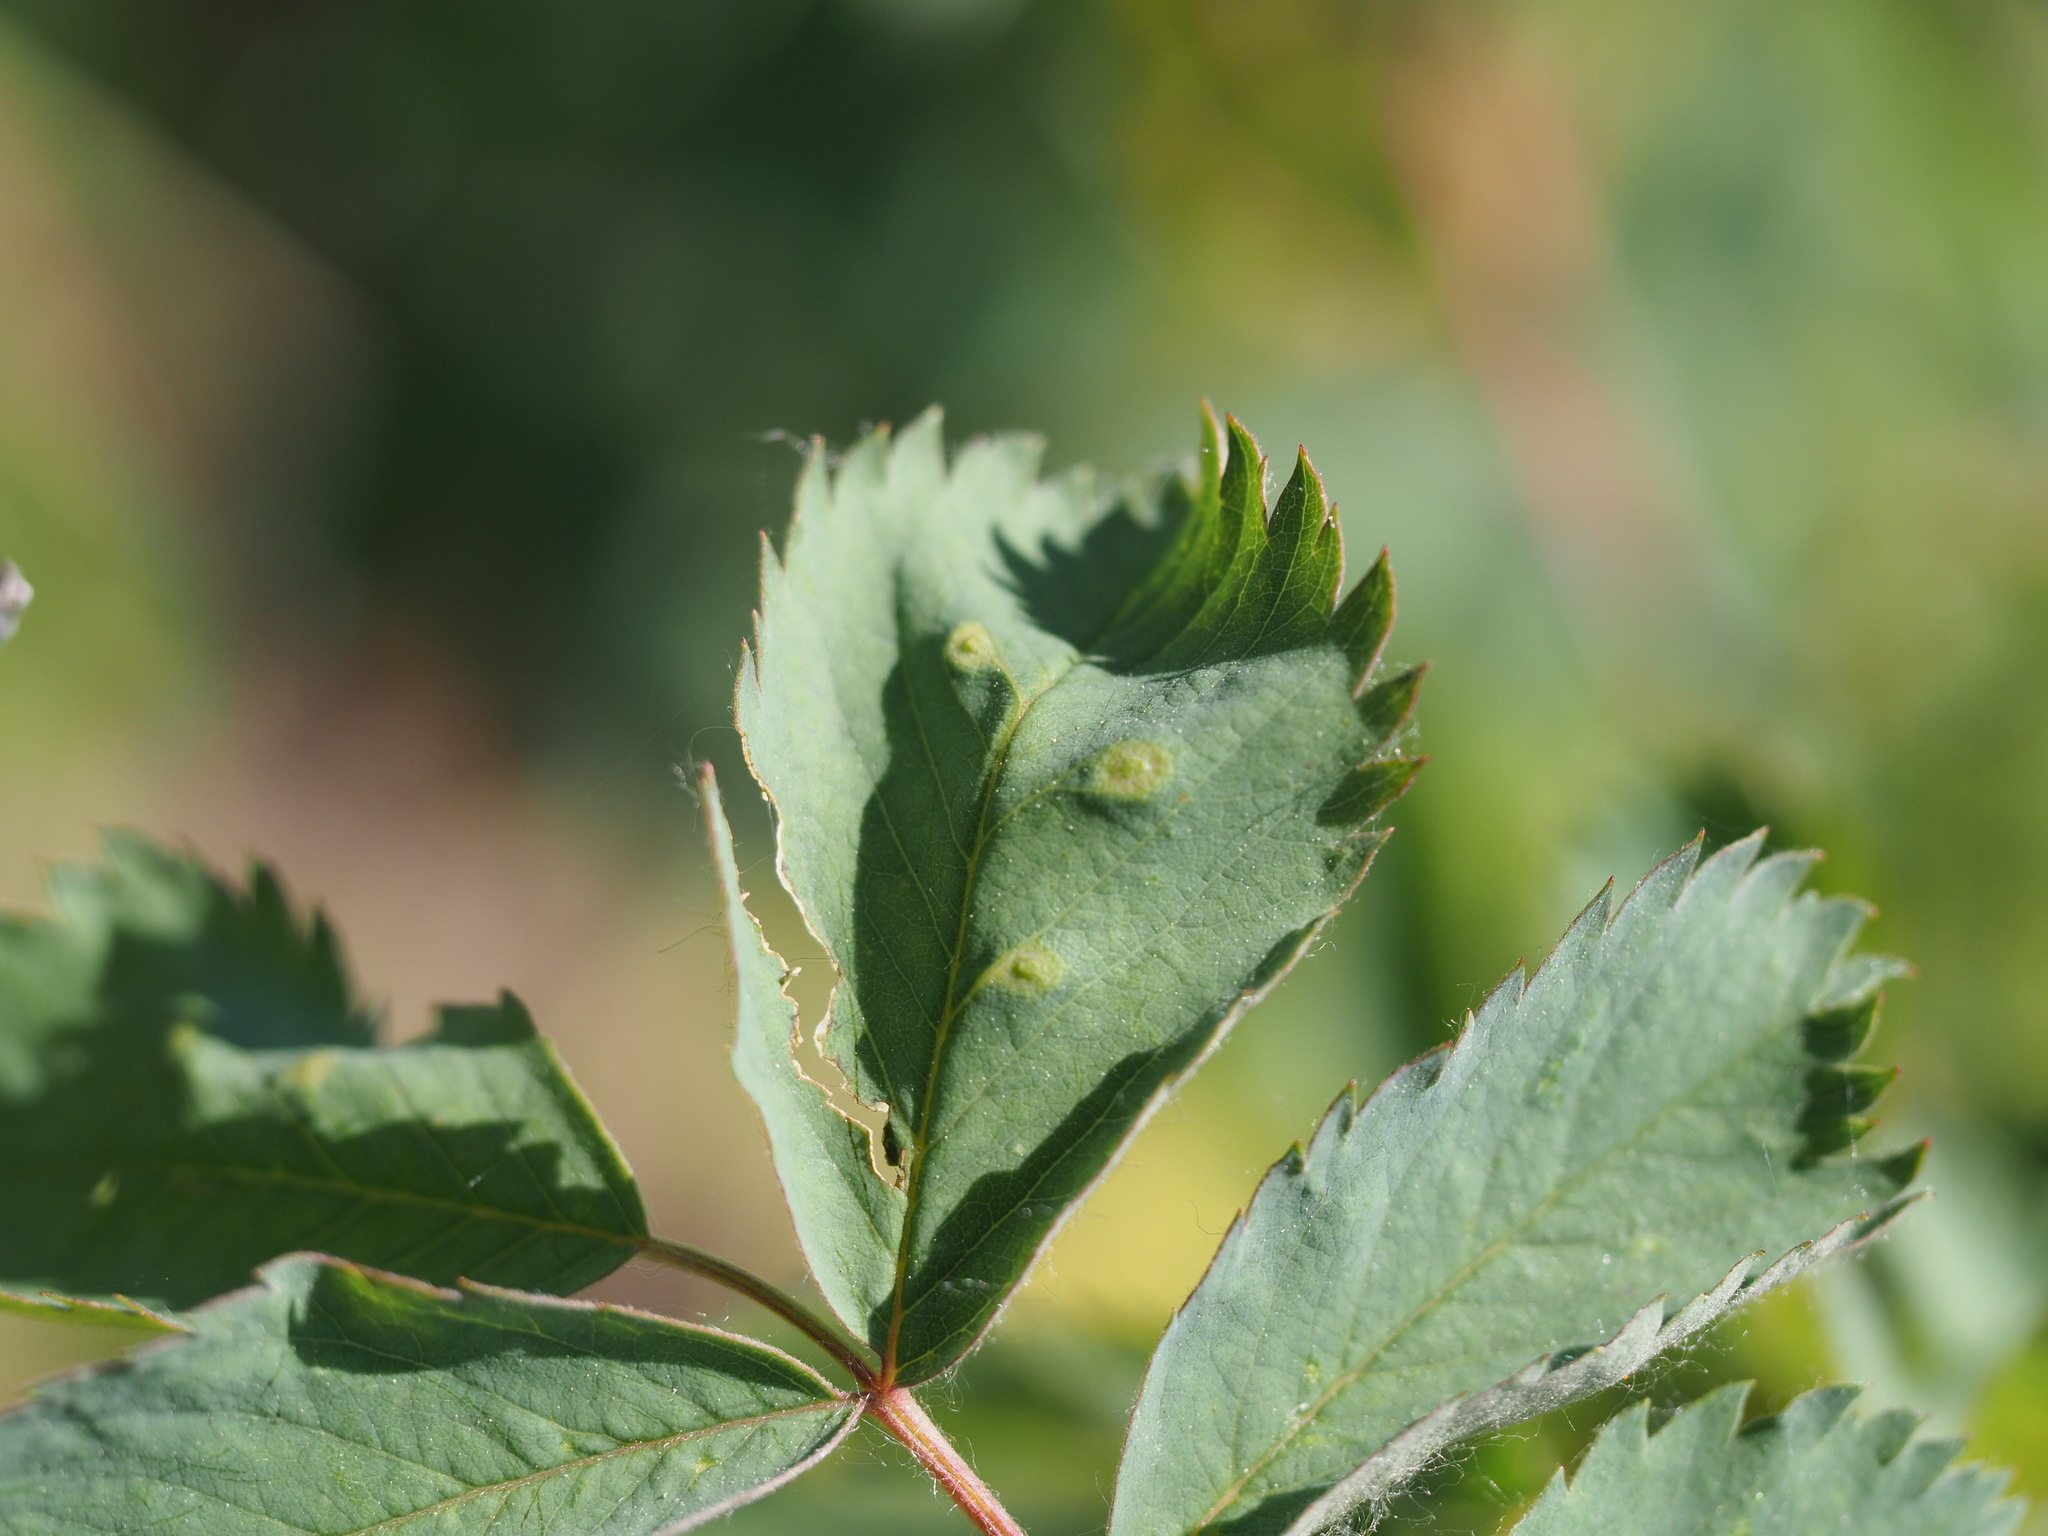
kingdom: Animalia
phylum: Arthropoda
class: Insecta
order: Hymenoptera
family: Cynipidae
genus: Diplolepis
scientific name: Diplolepis rosaefolii
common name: Blister-gall wasp
